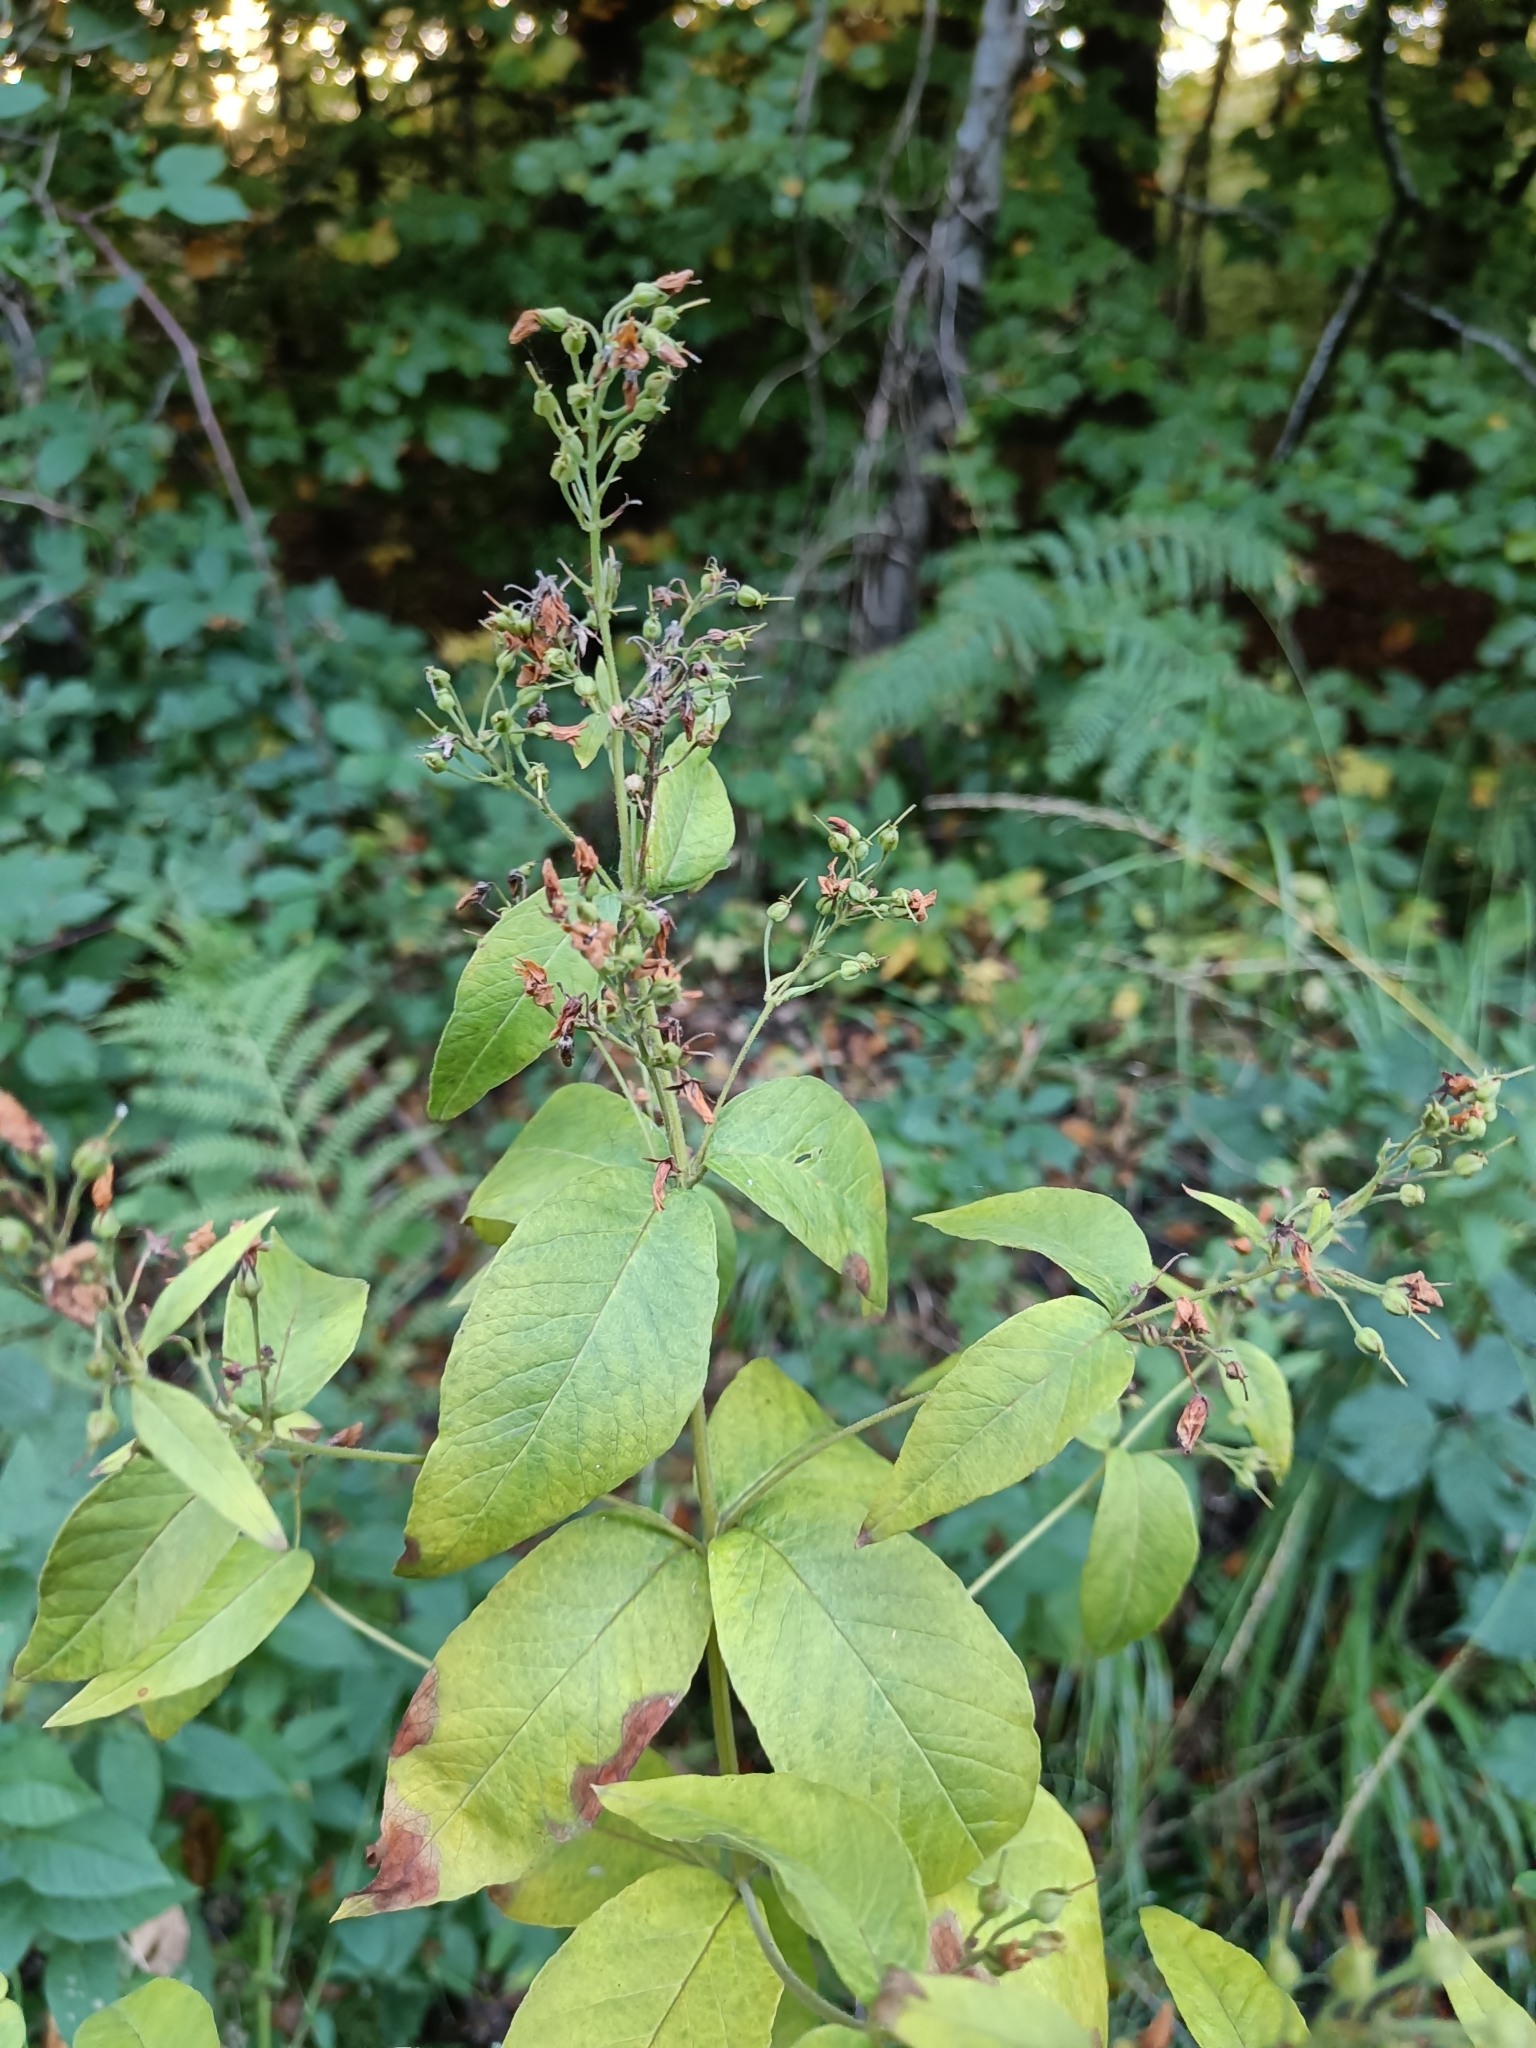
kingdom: Plantae
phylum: Tracheophyta
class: Magnoliopsida
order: Ericales
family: Primulaceae
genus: Lysimachia
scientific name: Lysimachia vulgaris
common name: Yellow loosestrife
